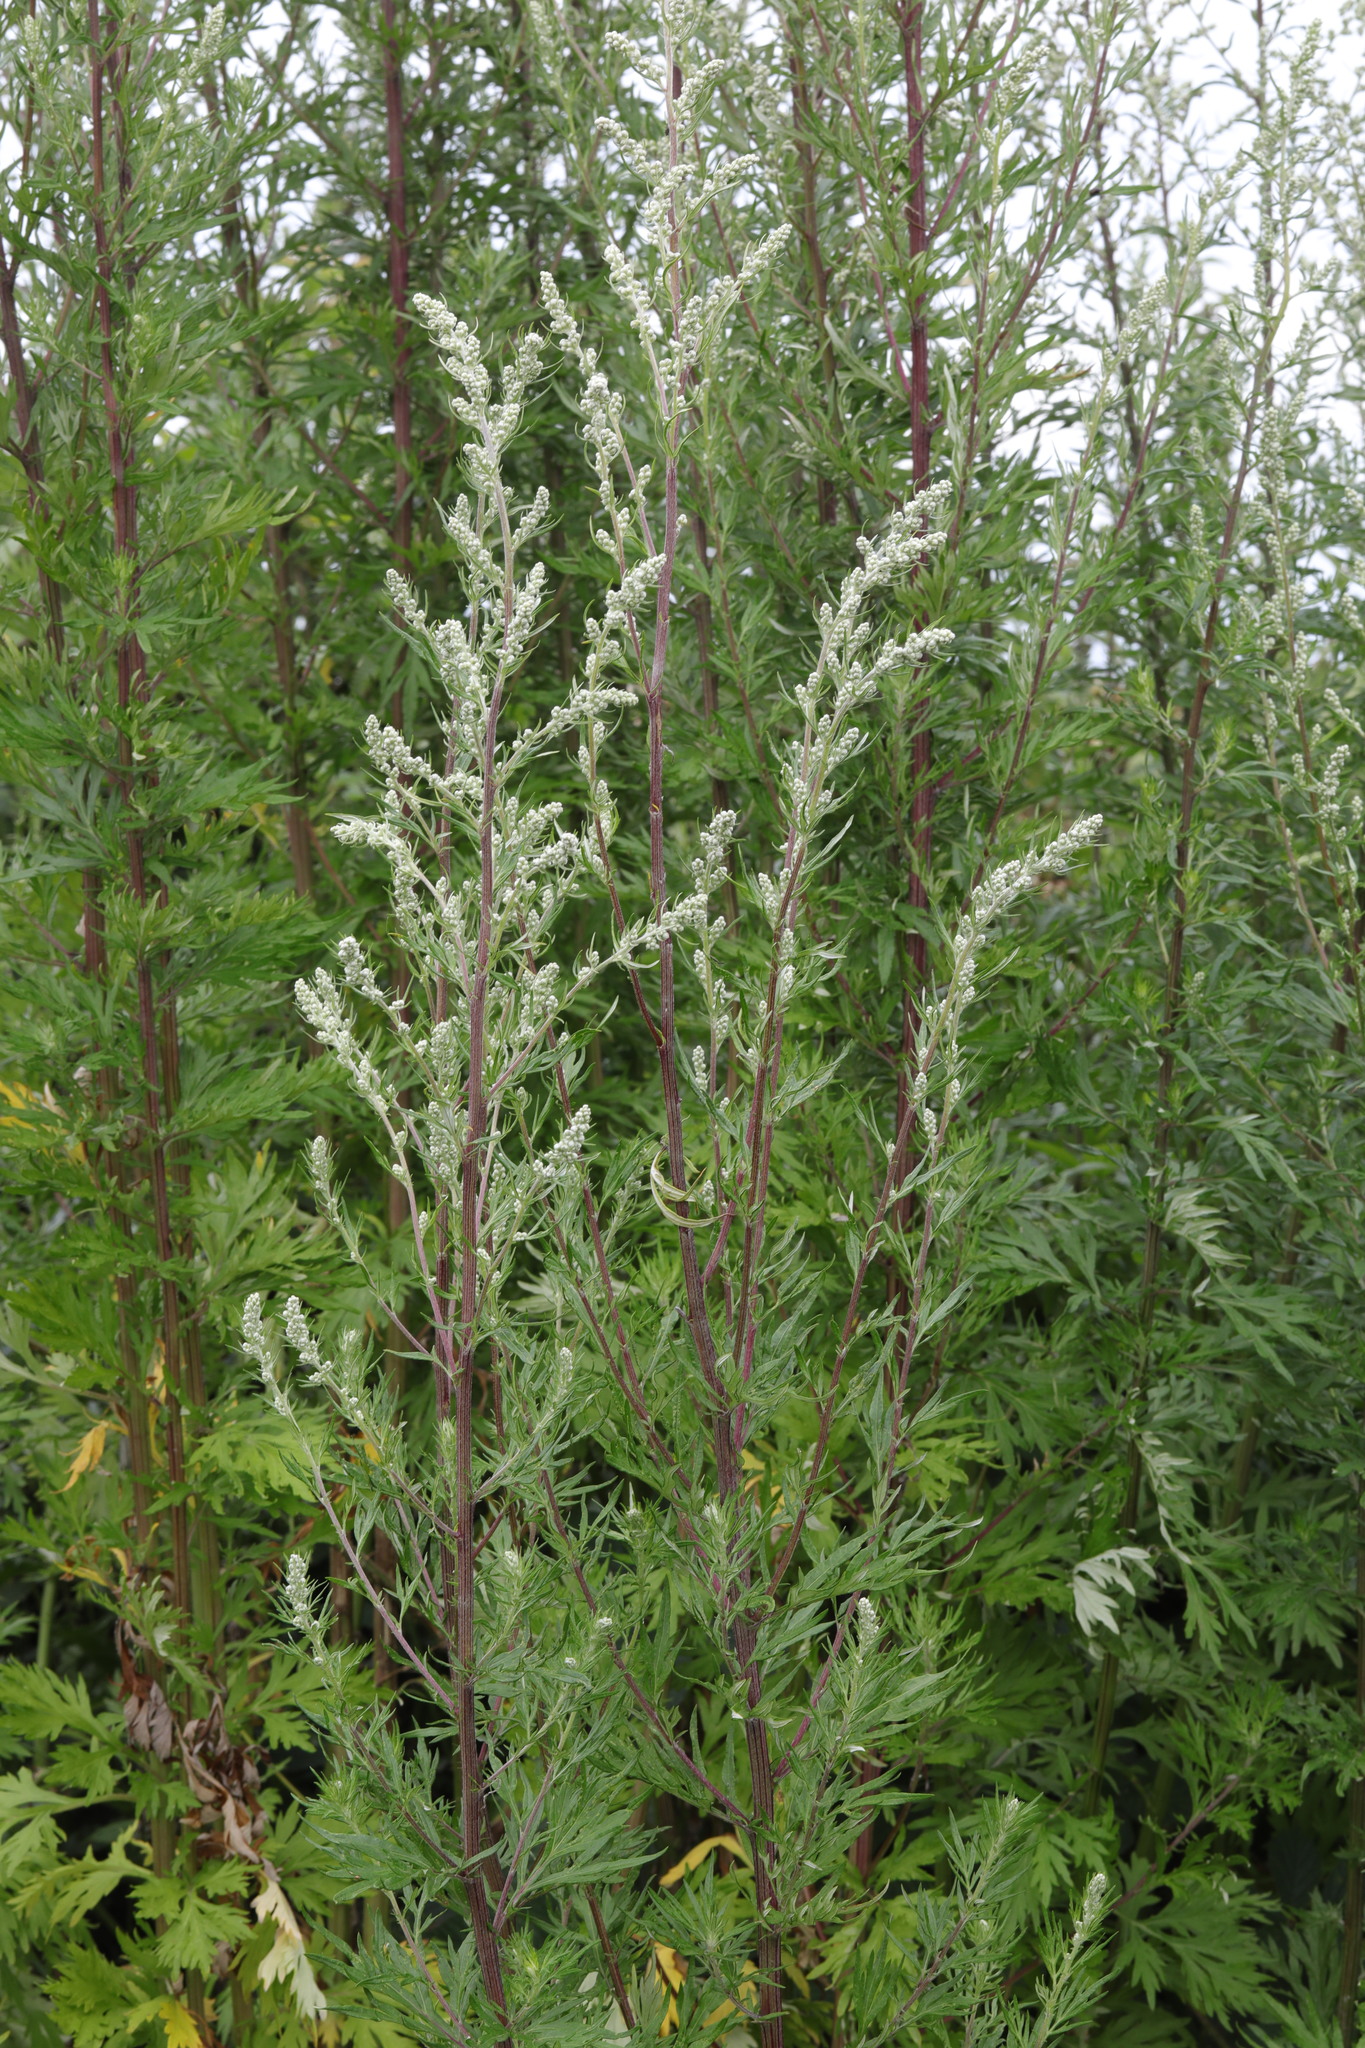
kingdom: Plantae
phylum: Tracheophyta
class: Magnoliopsida
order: Asterales
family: Asteraceae
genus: Artemisia
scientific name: Artemisia vulgaris
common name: Mugwort
